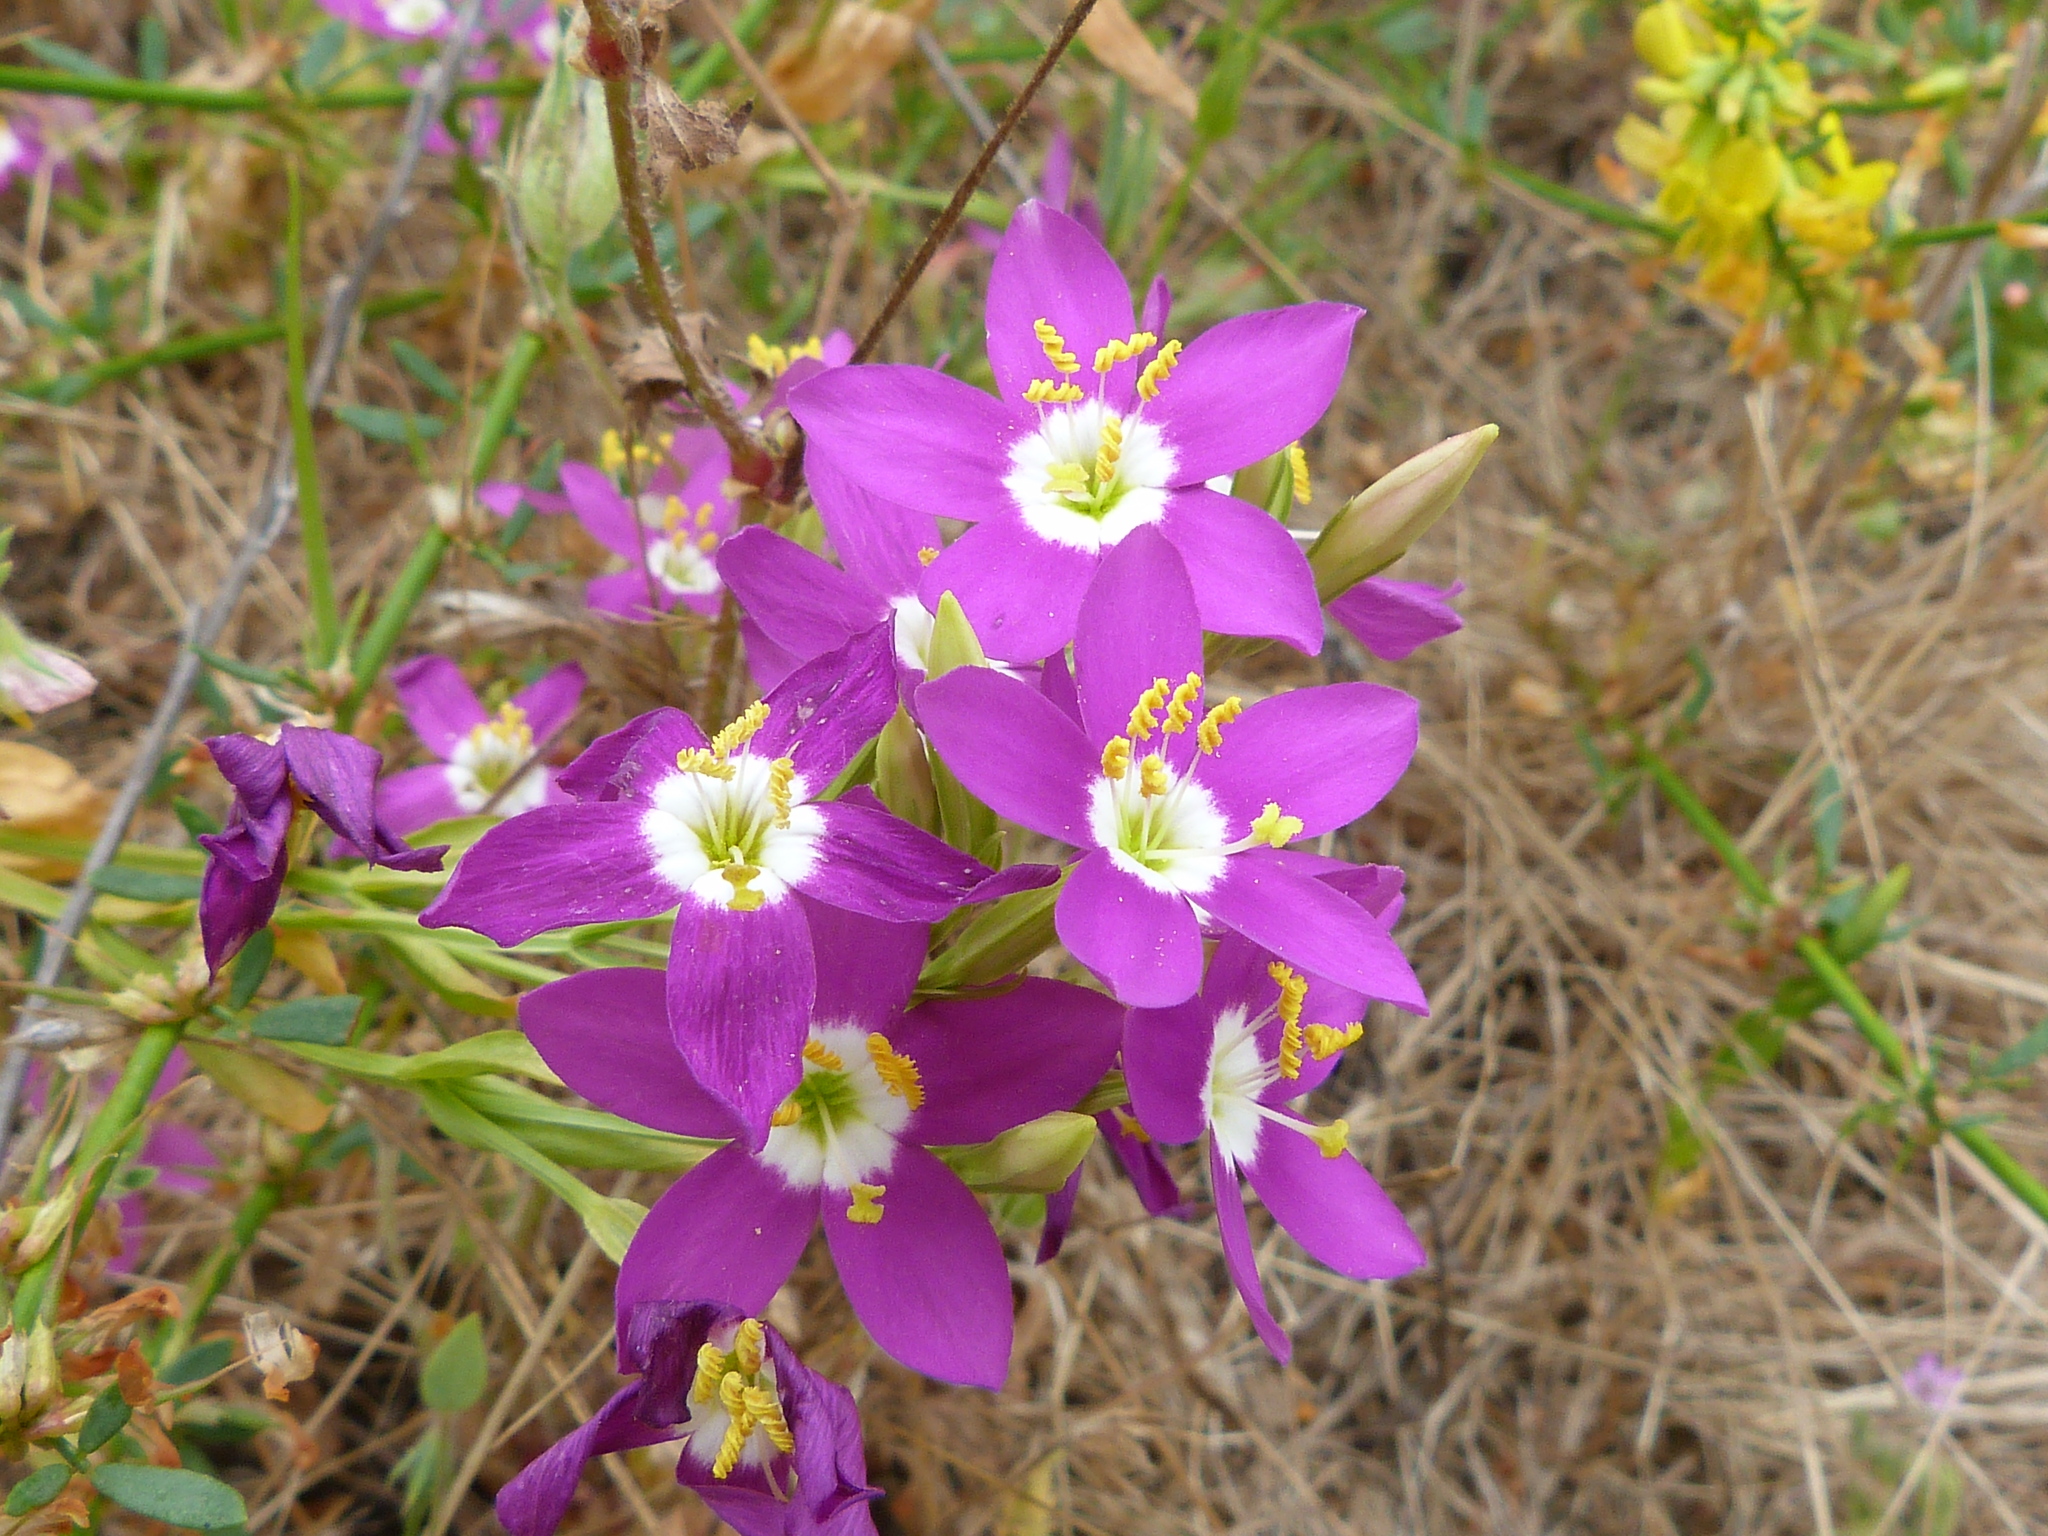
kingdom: Plantae
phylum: Tracheophyta
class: Magnoliopsida
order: Gentianales
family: Gentianaceae
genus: Zeltnera
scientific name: Zeltnera venusta
